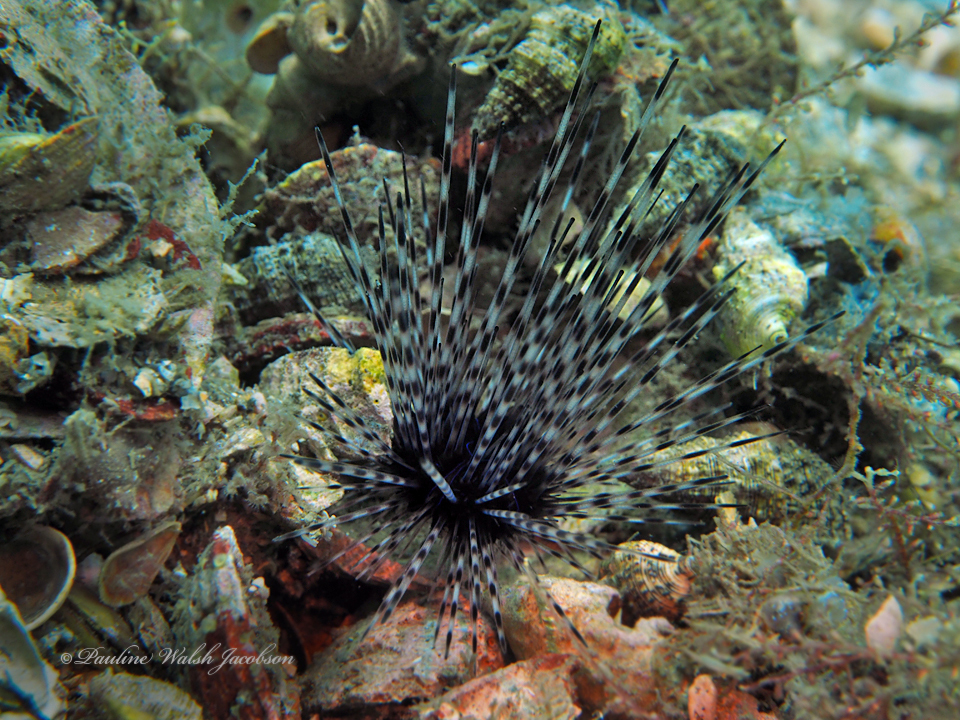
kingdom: Animalia
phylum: Echinodermata
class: Echinoidea
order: Diadematoida
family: Diadematidae
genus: Diadema
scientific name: Diadema antillarum
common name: Spiny urchin
